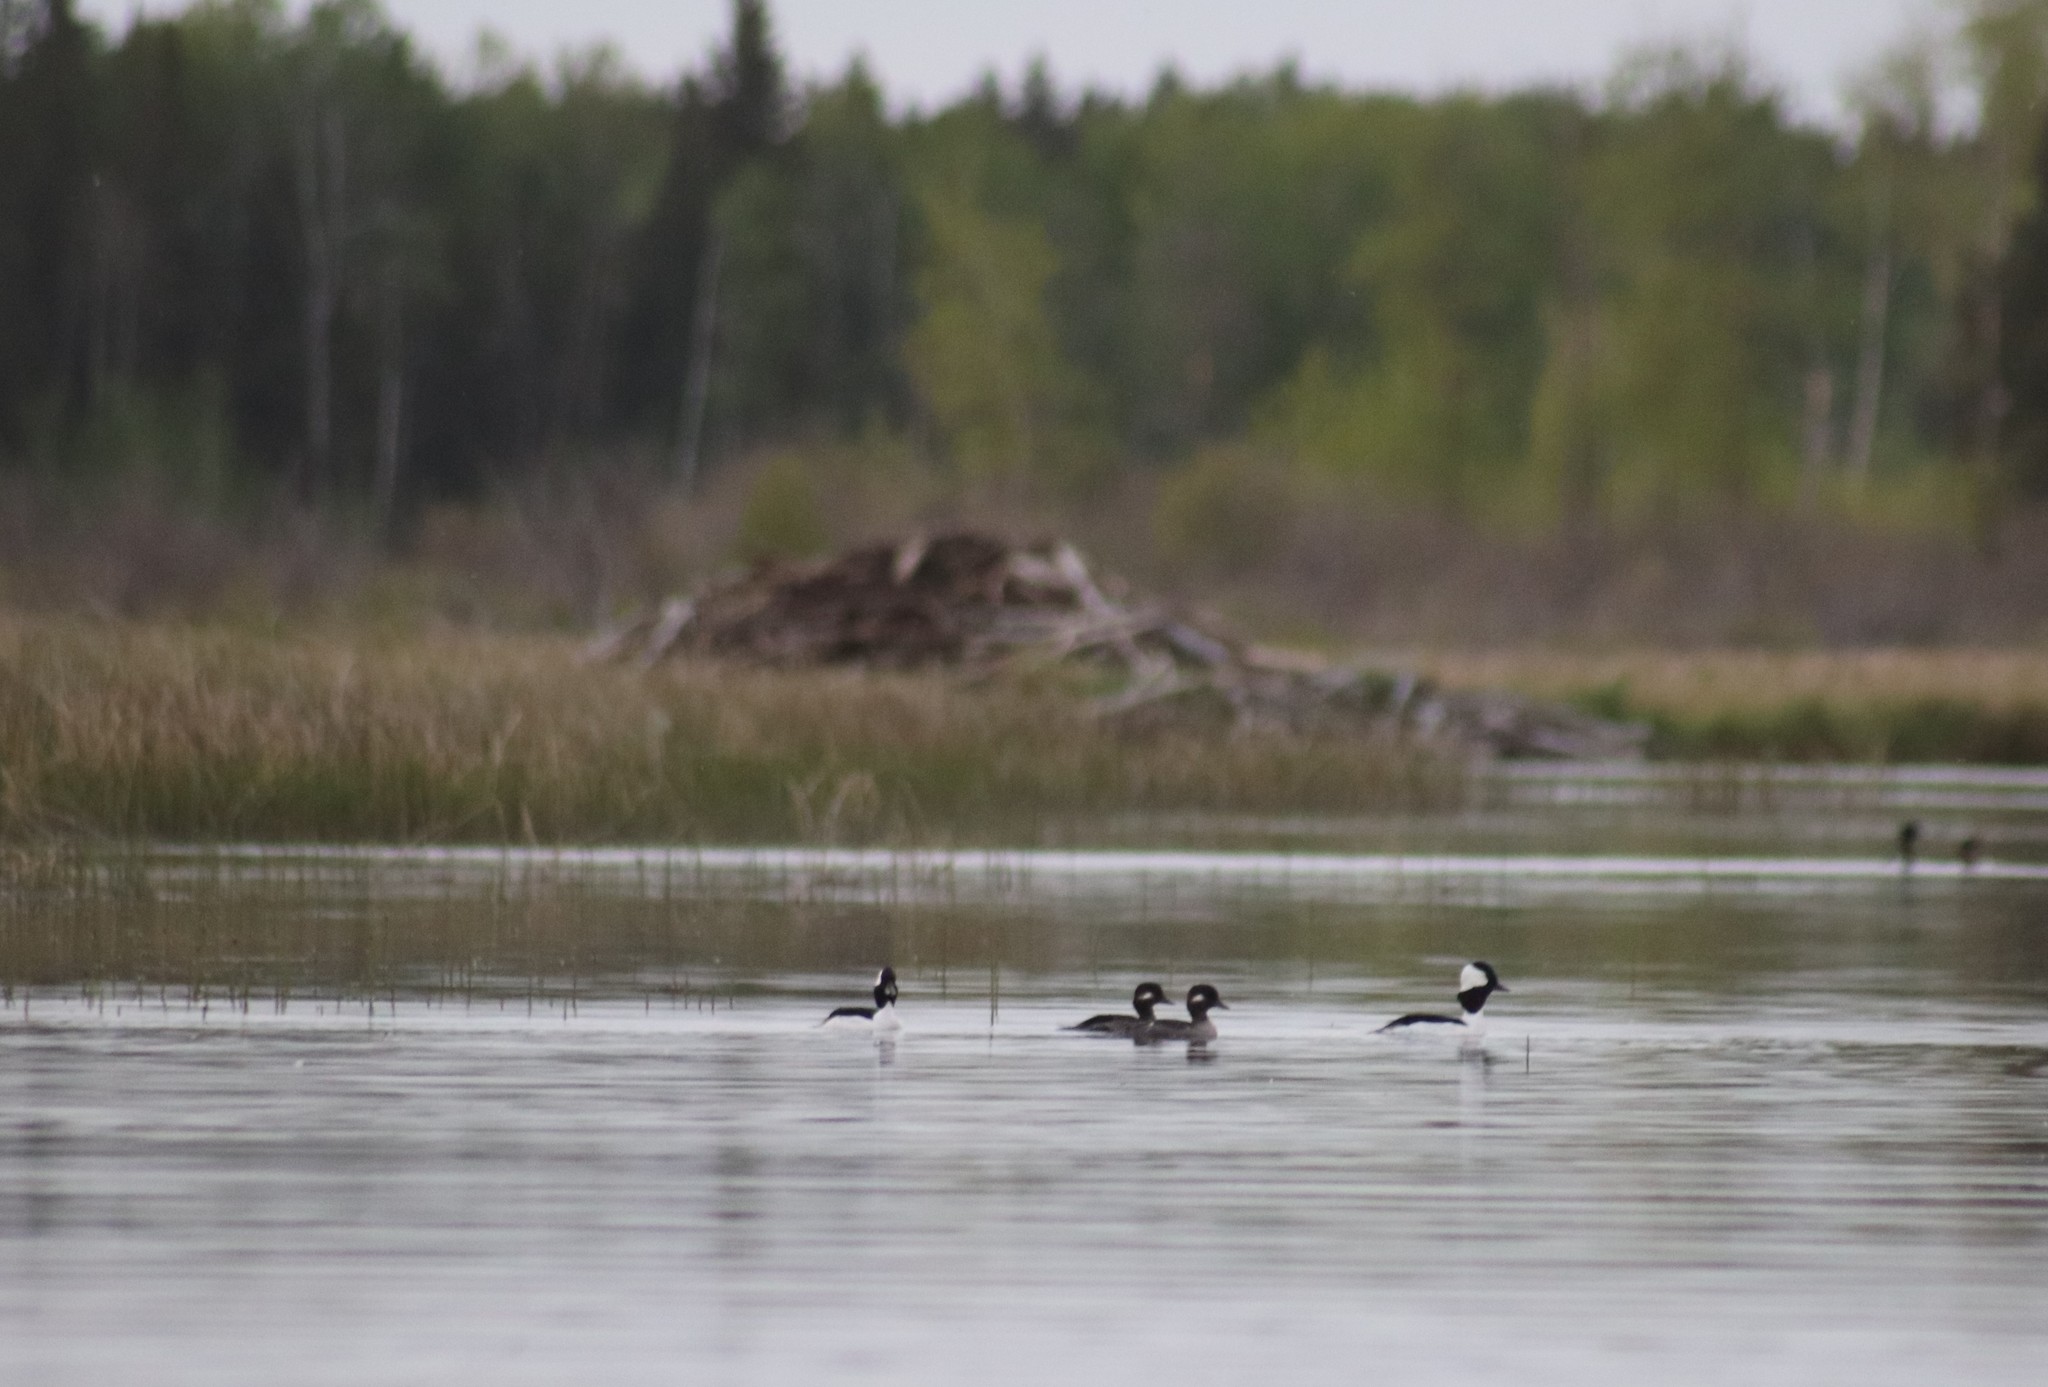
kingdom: Animalia
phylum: Chordata
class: Aves
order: Anseriformes
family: Anatidae
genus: Bucephala
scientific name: Bucephala albeola
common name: Bufflehead
